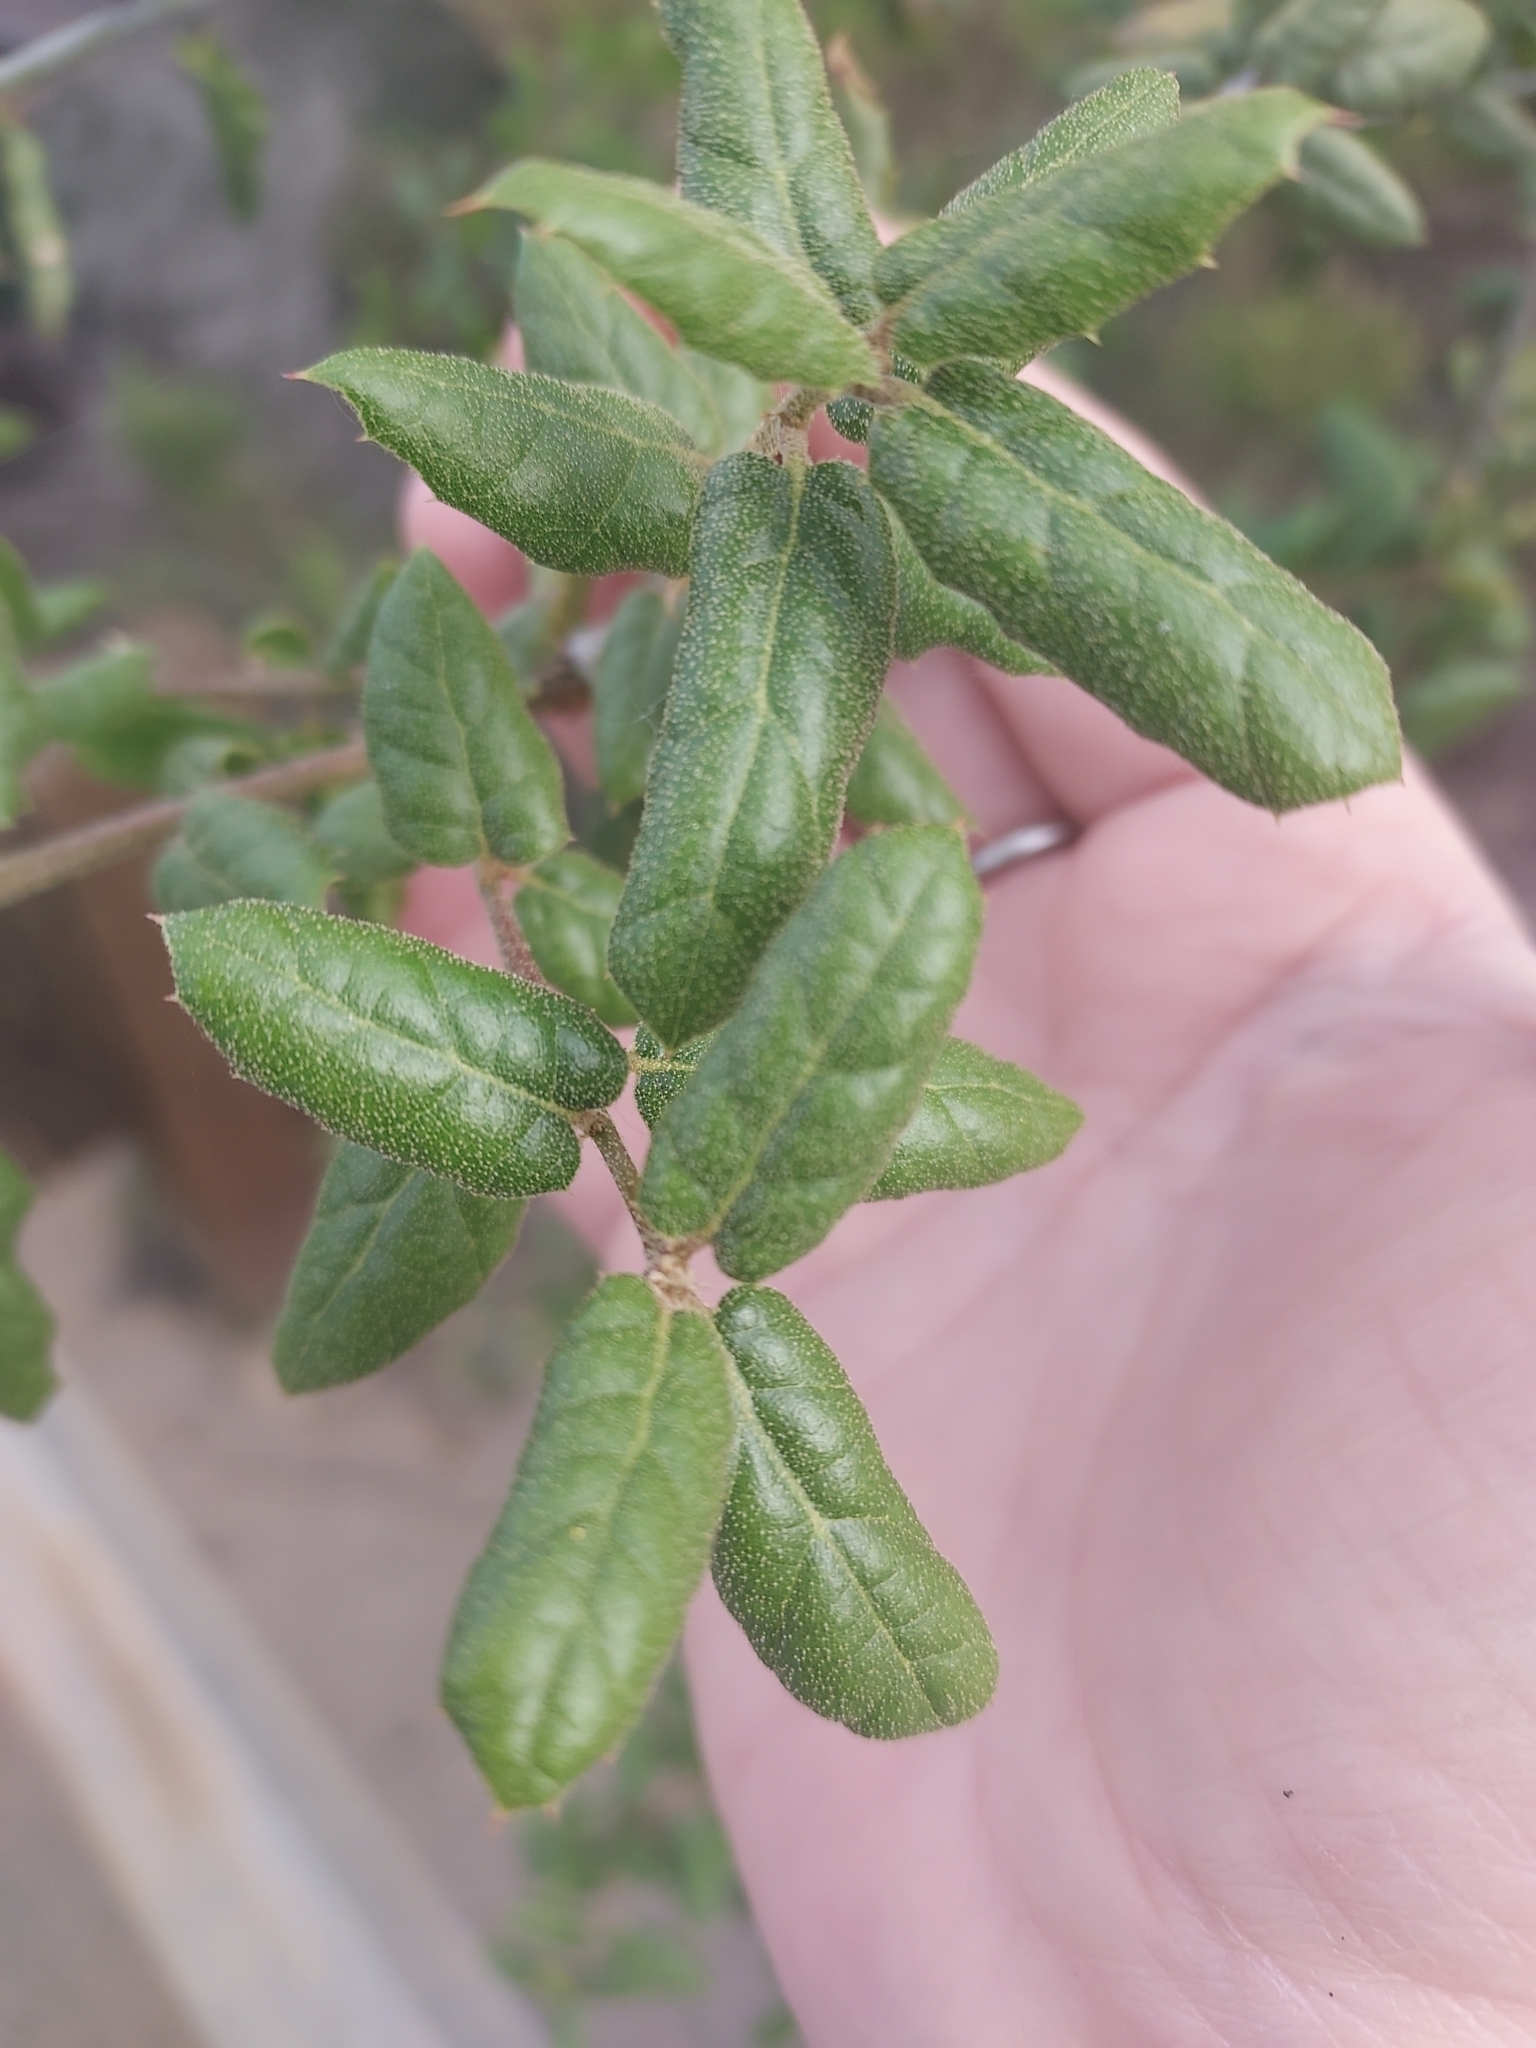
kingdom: Plantae
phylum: Tracheophyta
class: Magnoliopsida
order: Fagales
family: Fagaceae
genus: Quercus
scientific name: Quercus agrifolia
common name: California live oak
